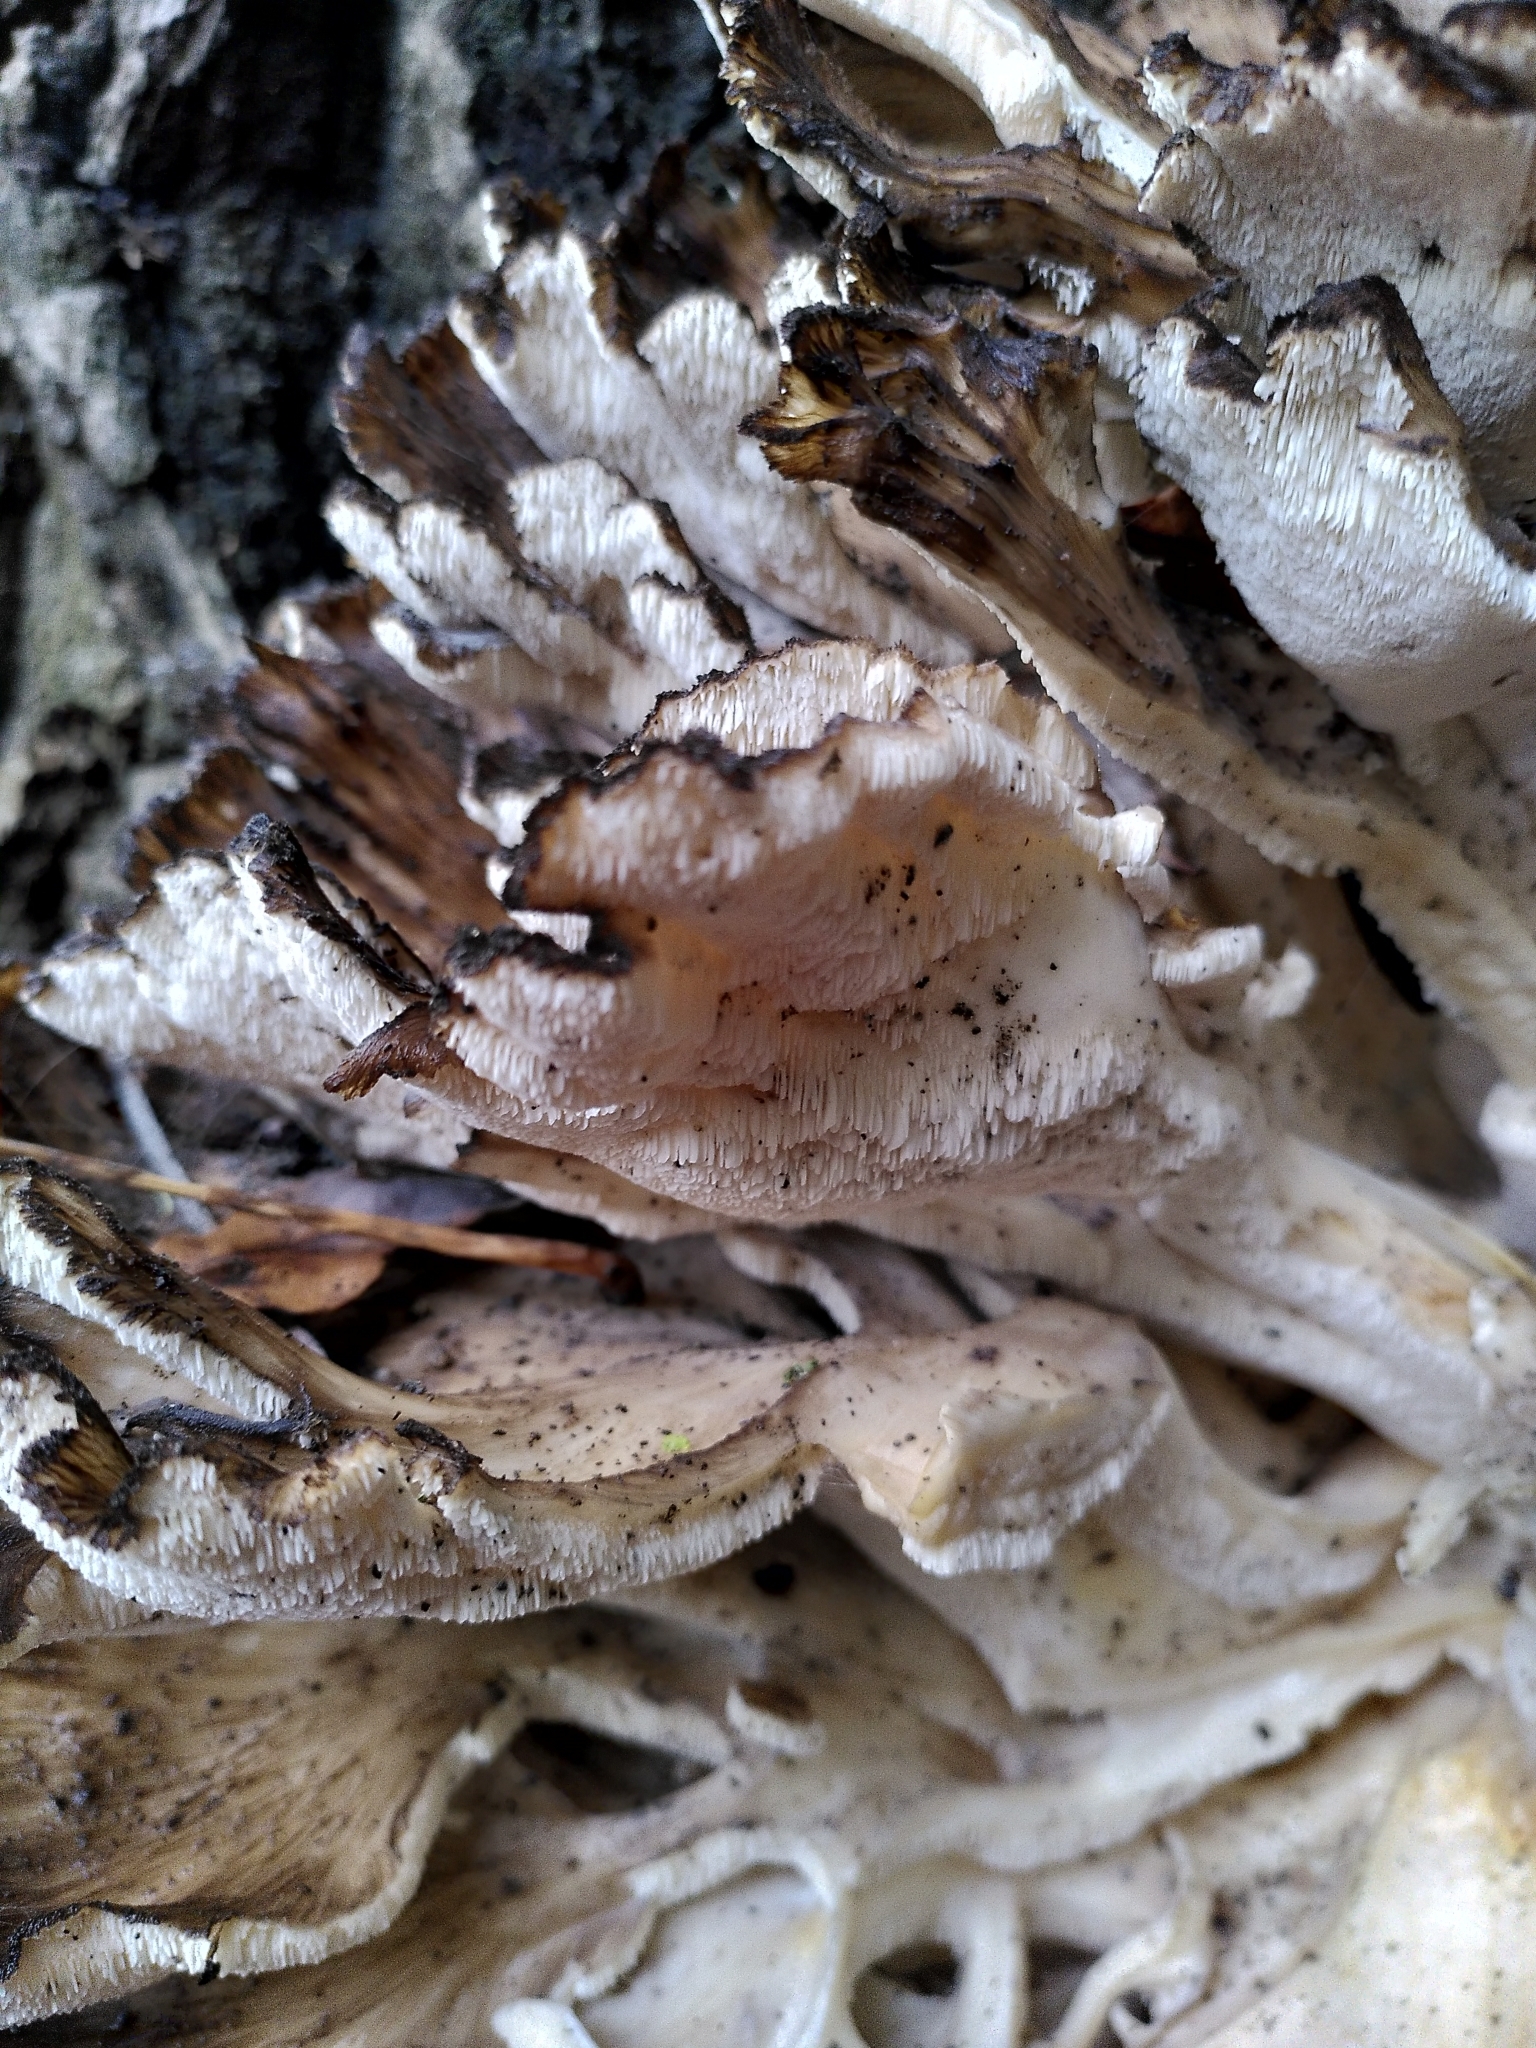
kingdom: Fungi
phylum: Basidiomycota
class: Agaricomycetes
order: Polyporales
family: Grifolaceae
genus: Grifola
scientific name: Grifola frondosa
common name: Hen of the woods
